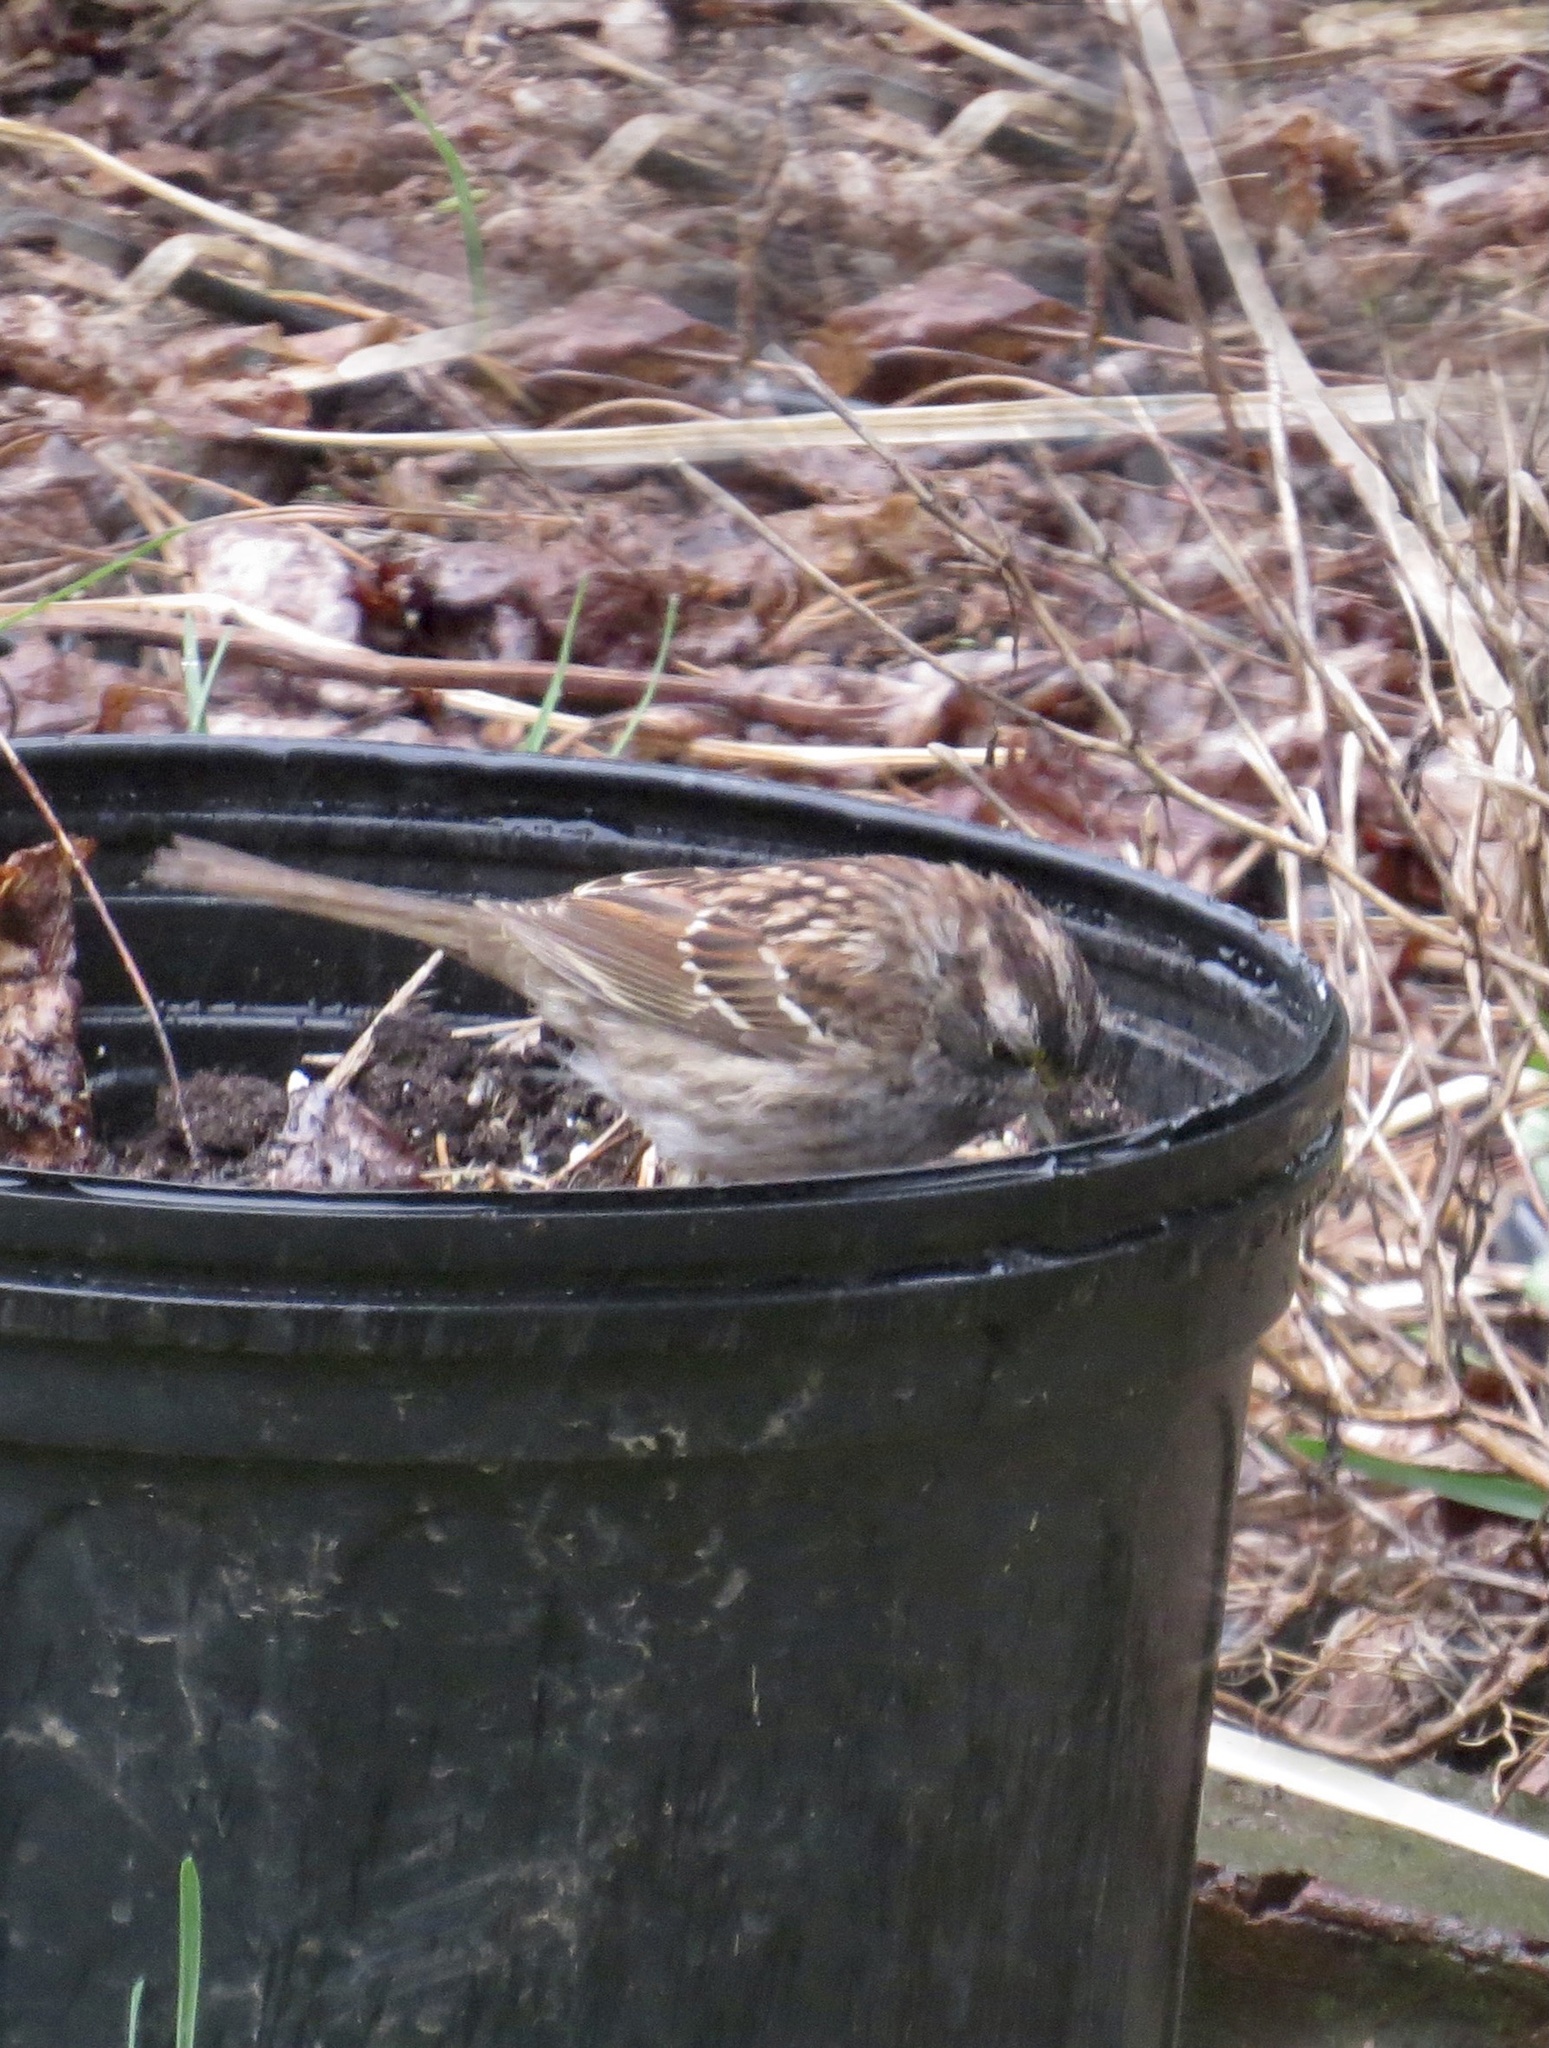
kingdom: Animalia
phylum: Chordata
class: Aves
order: Passeriformes
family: Passerellidae
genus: Zonotrichia
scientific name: Zonotrichia albicollis
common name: White-throated sparrow
